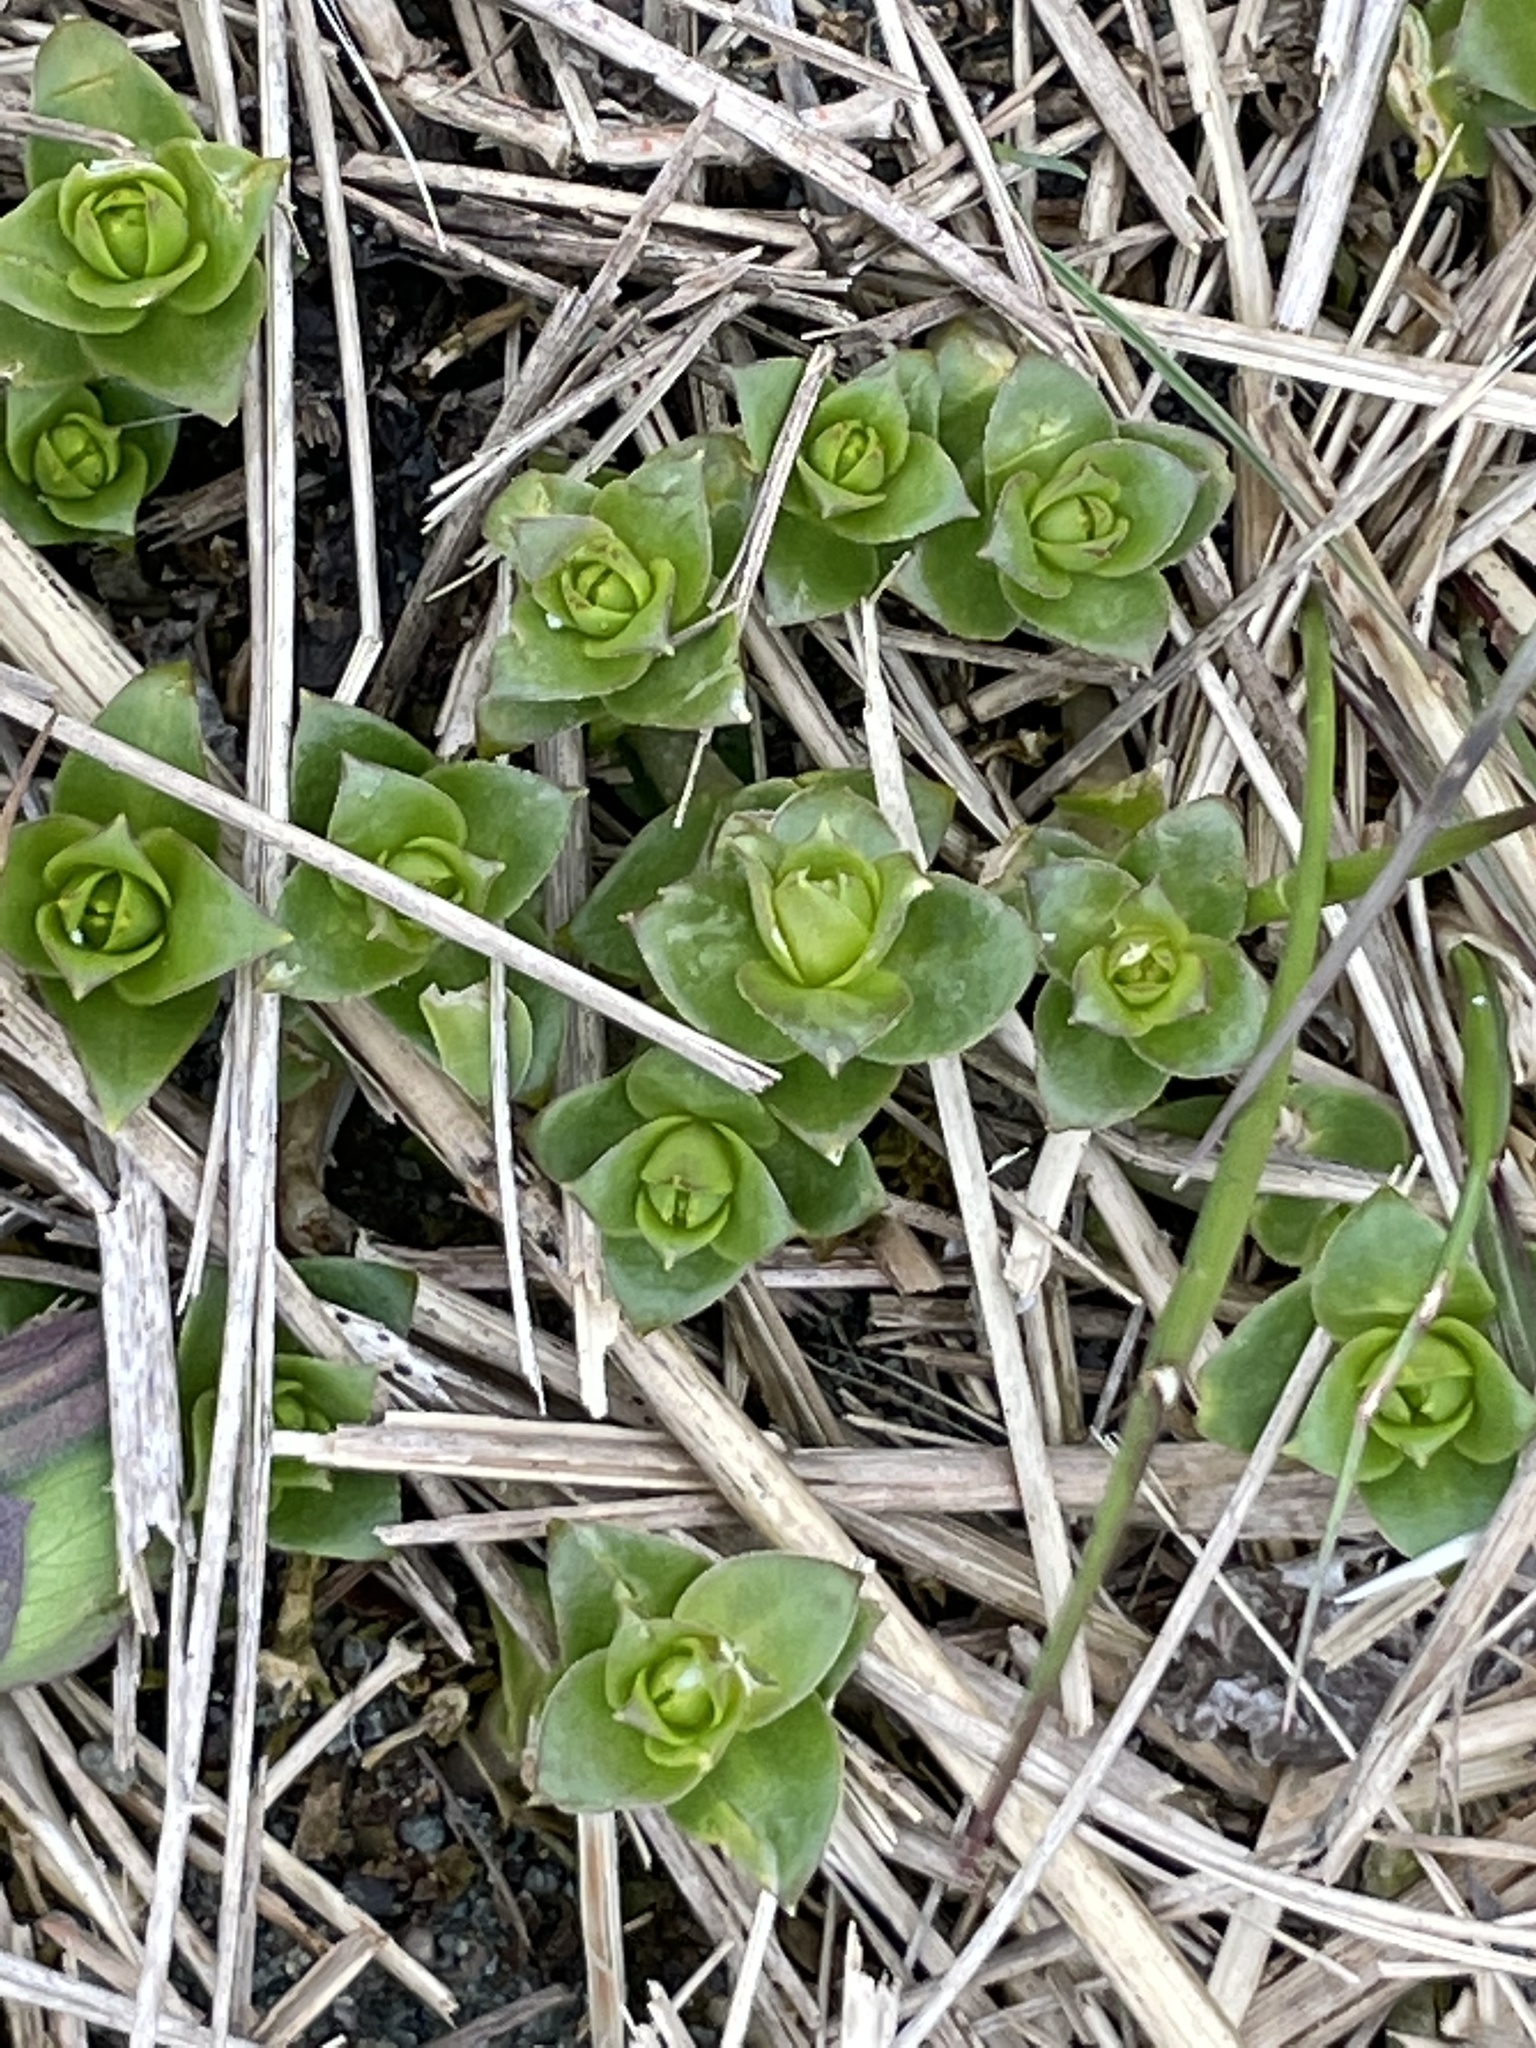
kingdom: Plantae
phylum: Tracheophyta
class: Magnoliopsida
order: Caryophyllales
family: Caryophyllaceae
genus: Honckenya
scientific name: Honckenya peploides
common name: Sea sandwort
